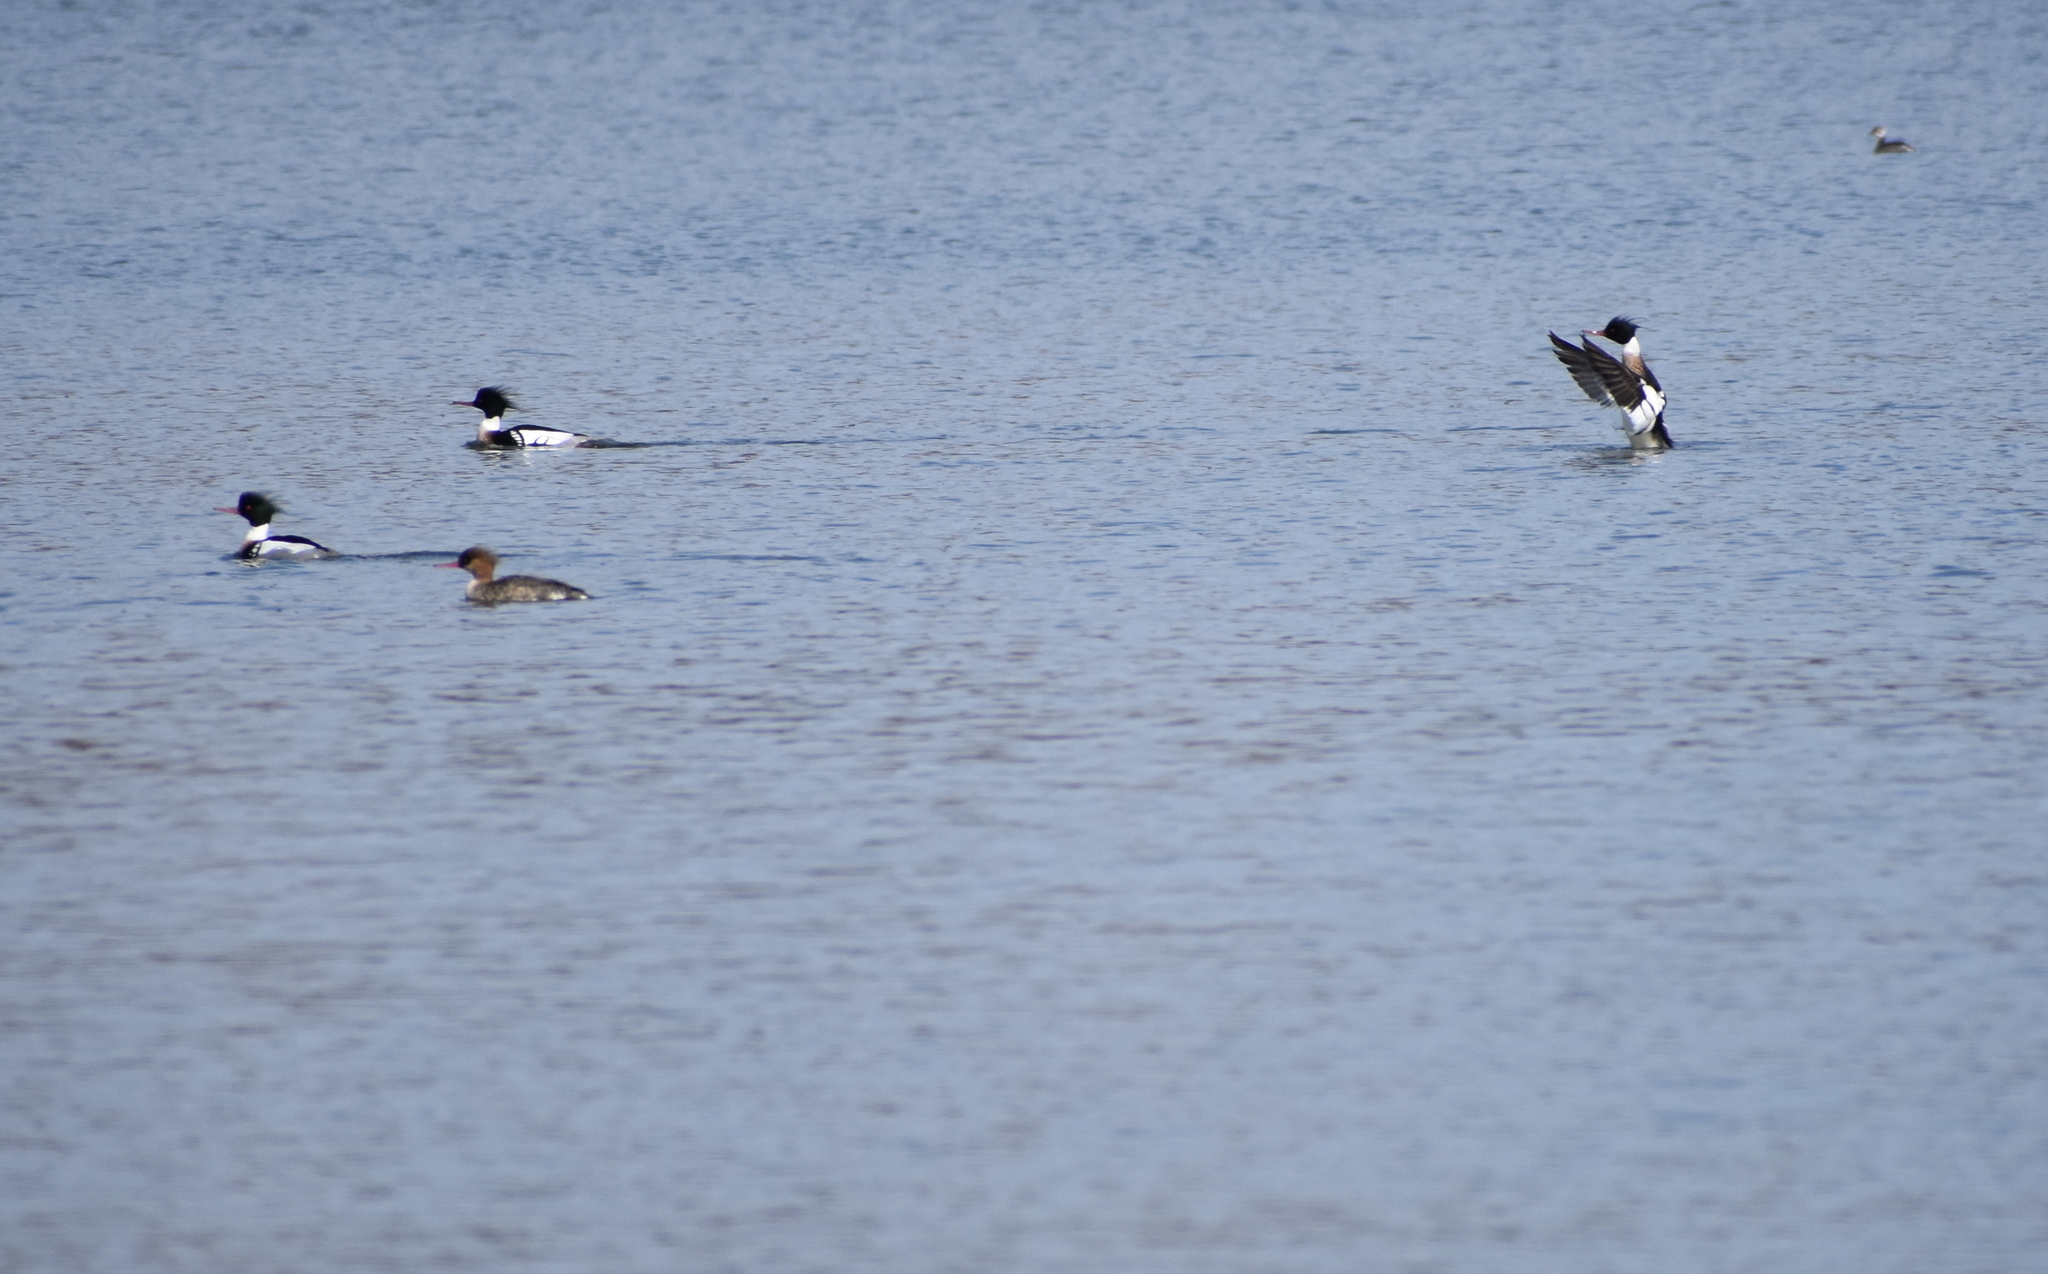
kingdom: Animalia
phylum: Chordata
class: Aves
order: Anseriformes
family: Anatidae
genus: Mergus
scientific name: Mergus serrator
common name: Red-breasted merganser
